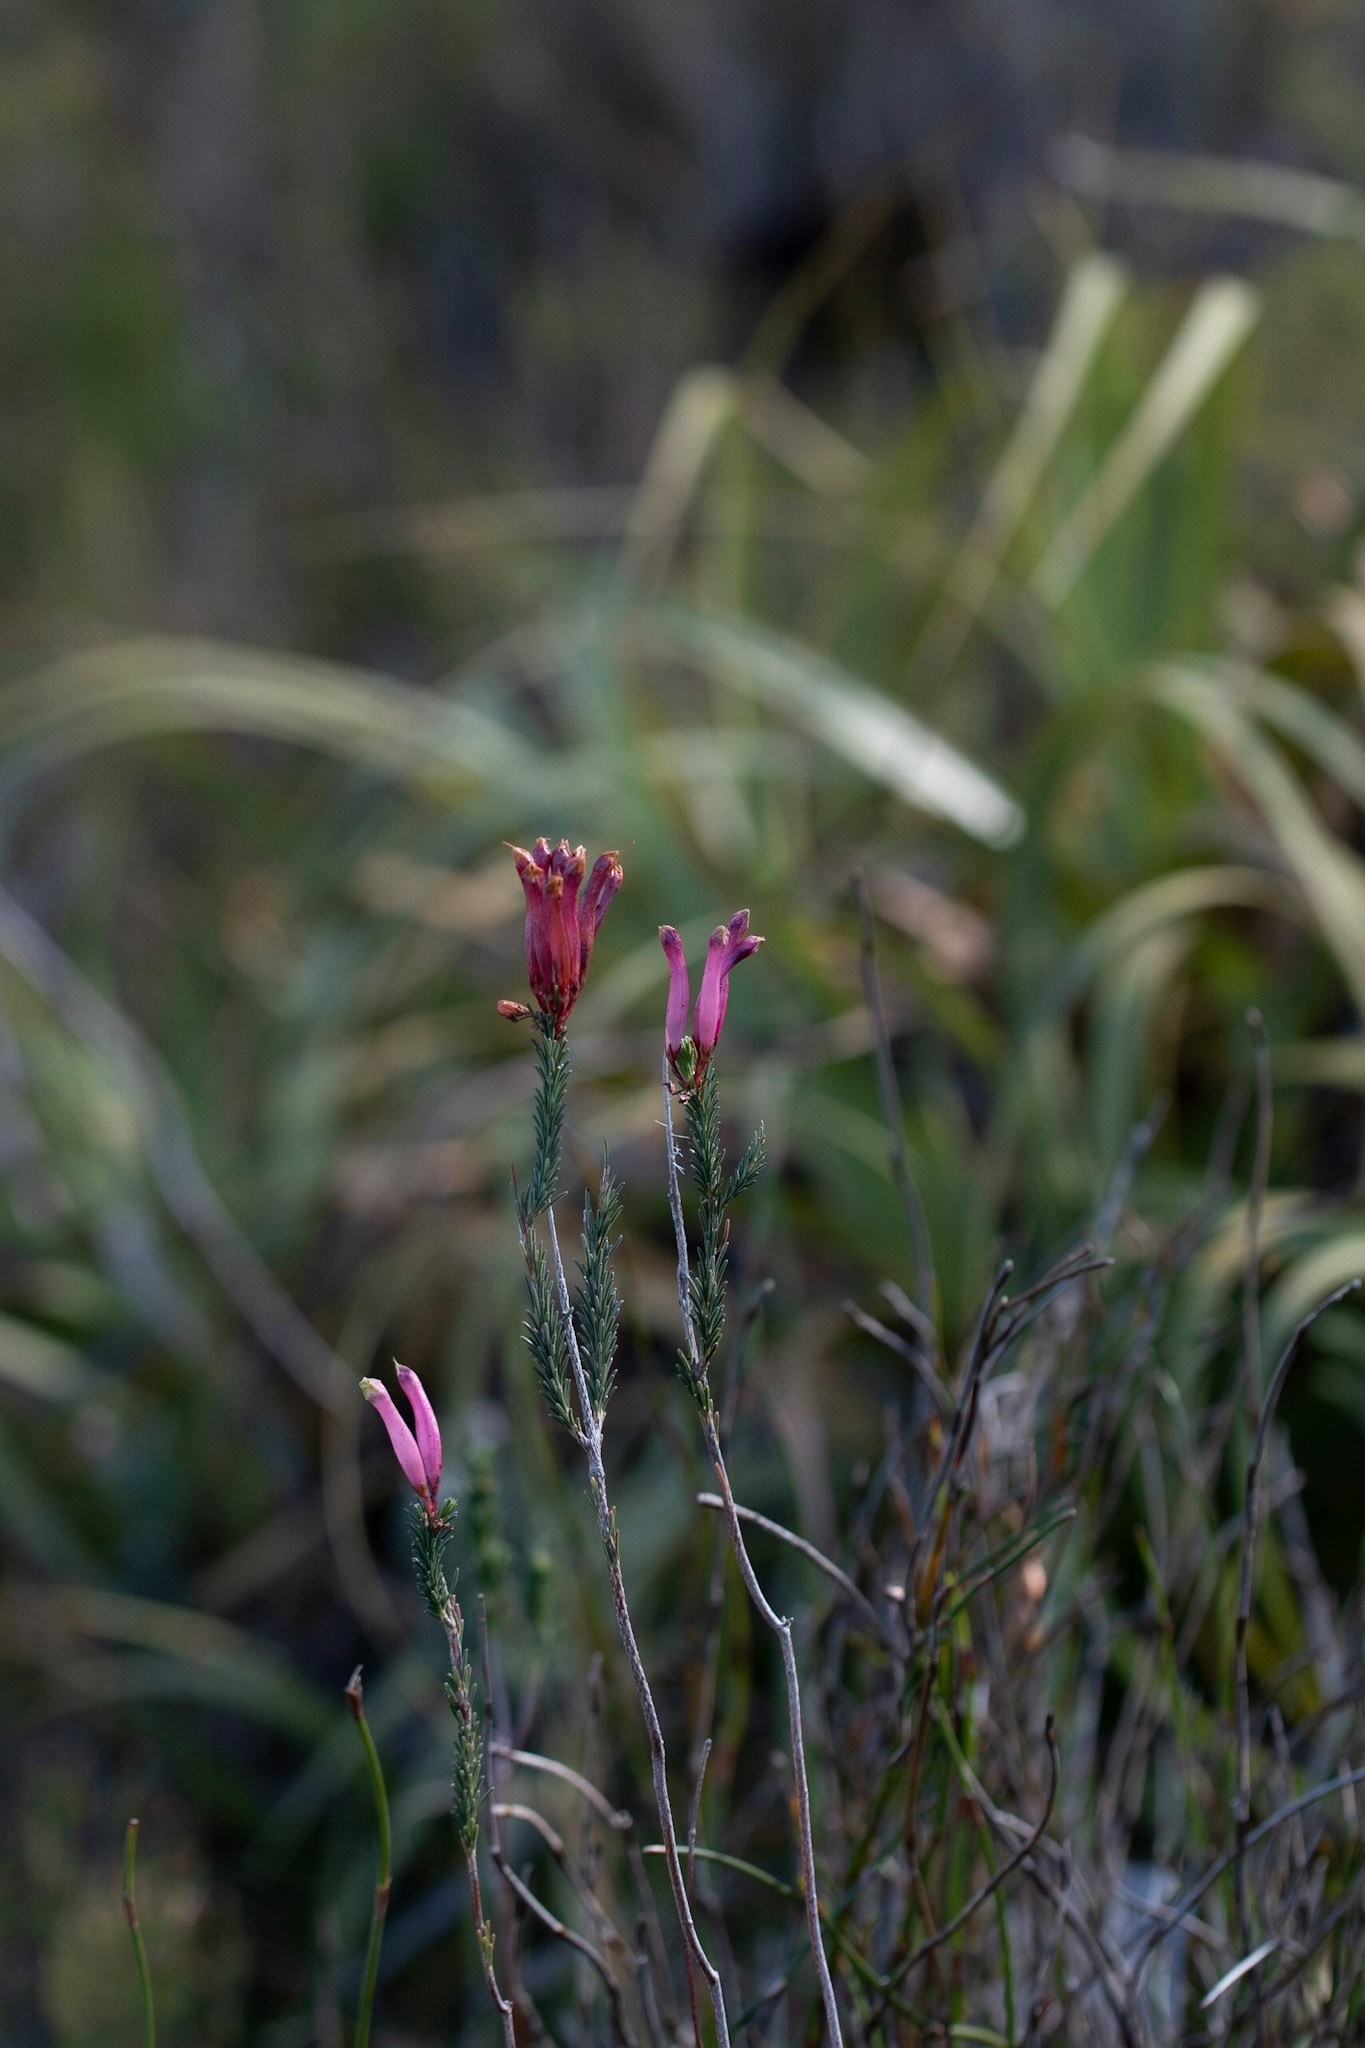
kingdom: Plantae
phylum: Tracheophyta
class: Magnoliopsida
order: Ericales
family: Ericaceae
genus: Erica
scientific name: Erica fascicularis
